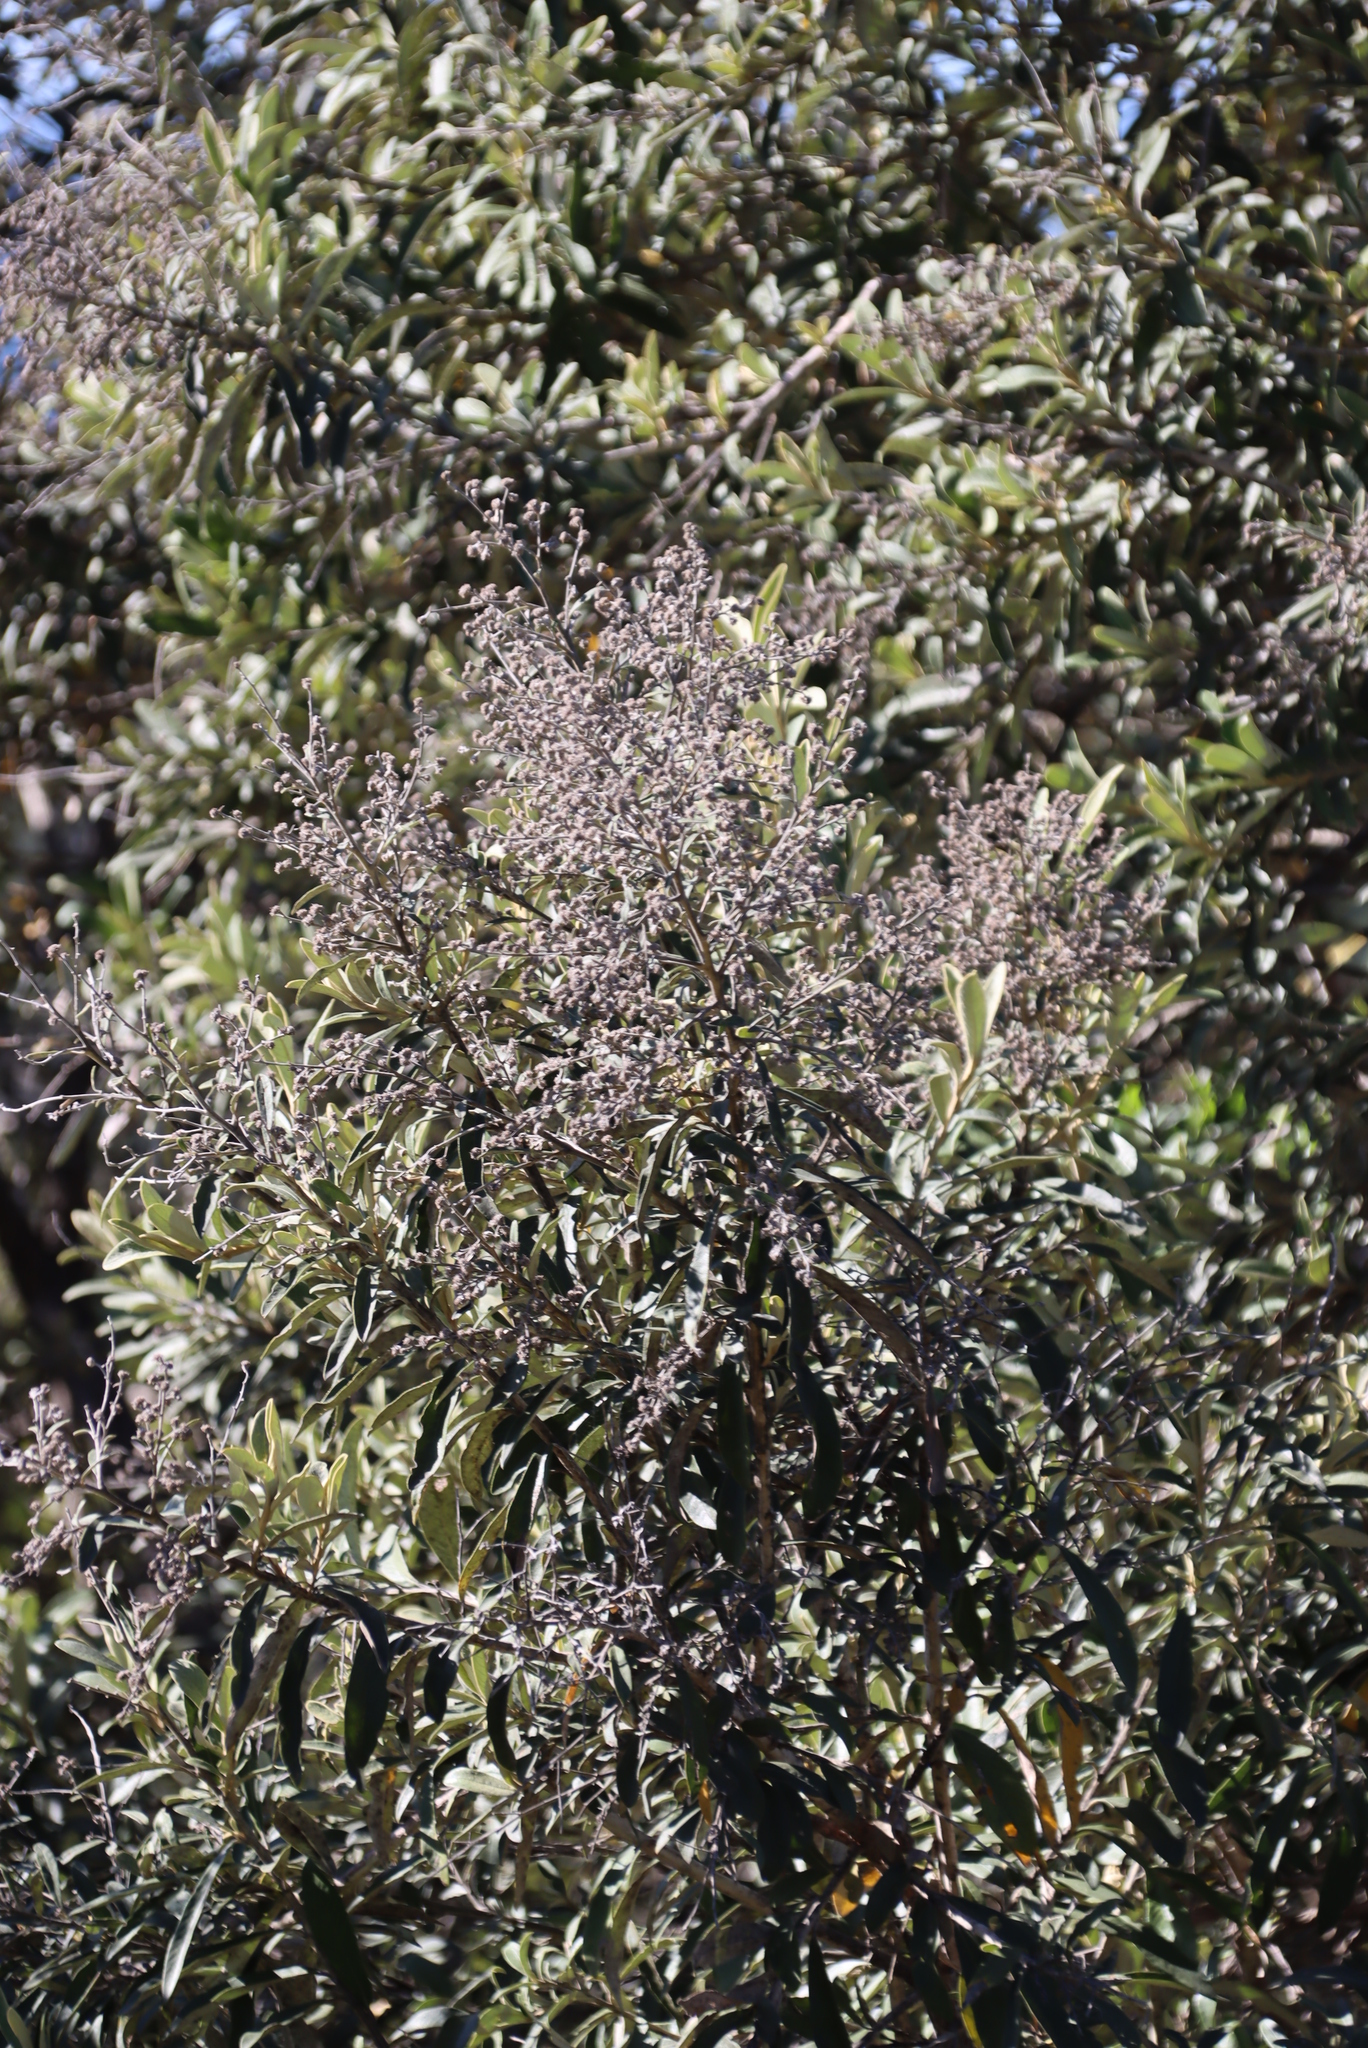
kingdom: Plantae
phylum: Tracheophyta
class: Magnoliopsida
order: Lamiales
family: Scrophulariaceae
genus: Buddleja
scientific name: Buddleja saligna
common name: False olive
